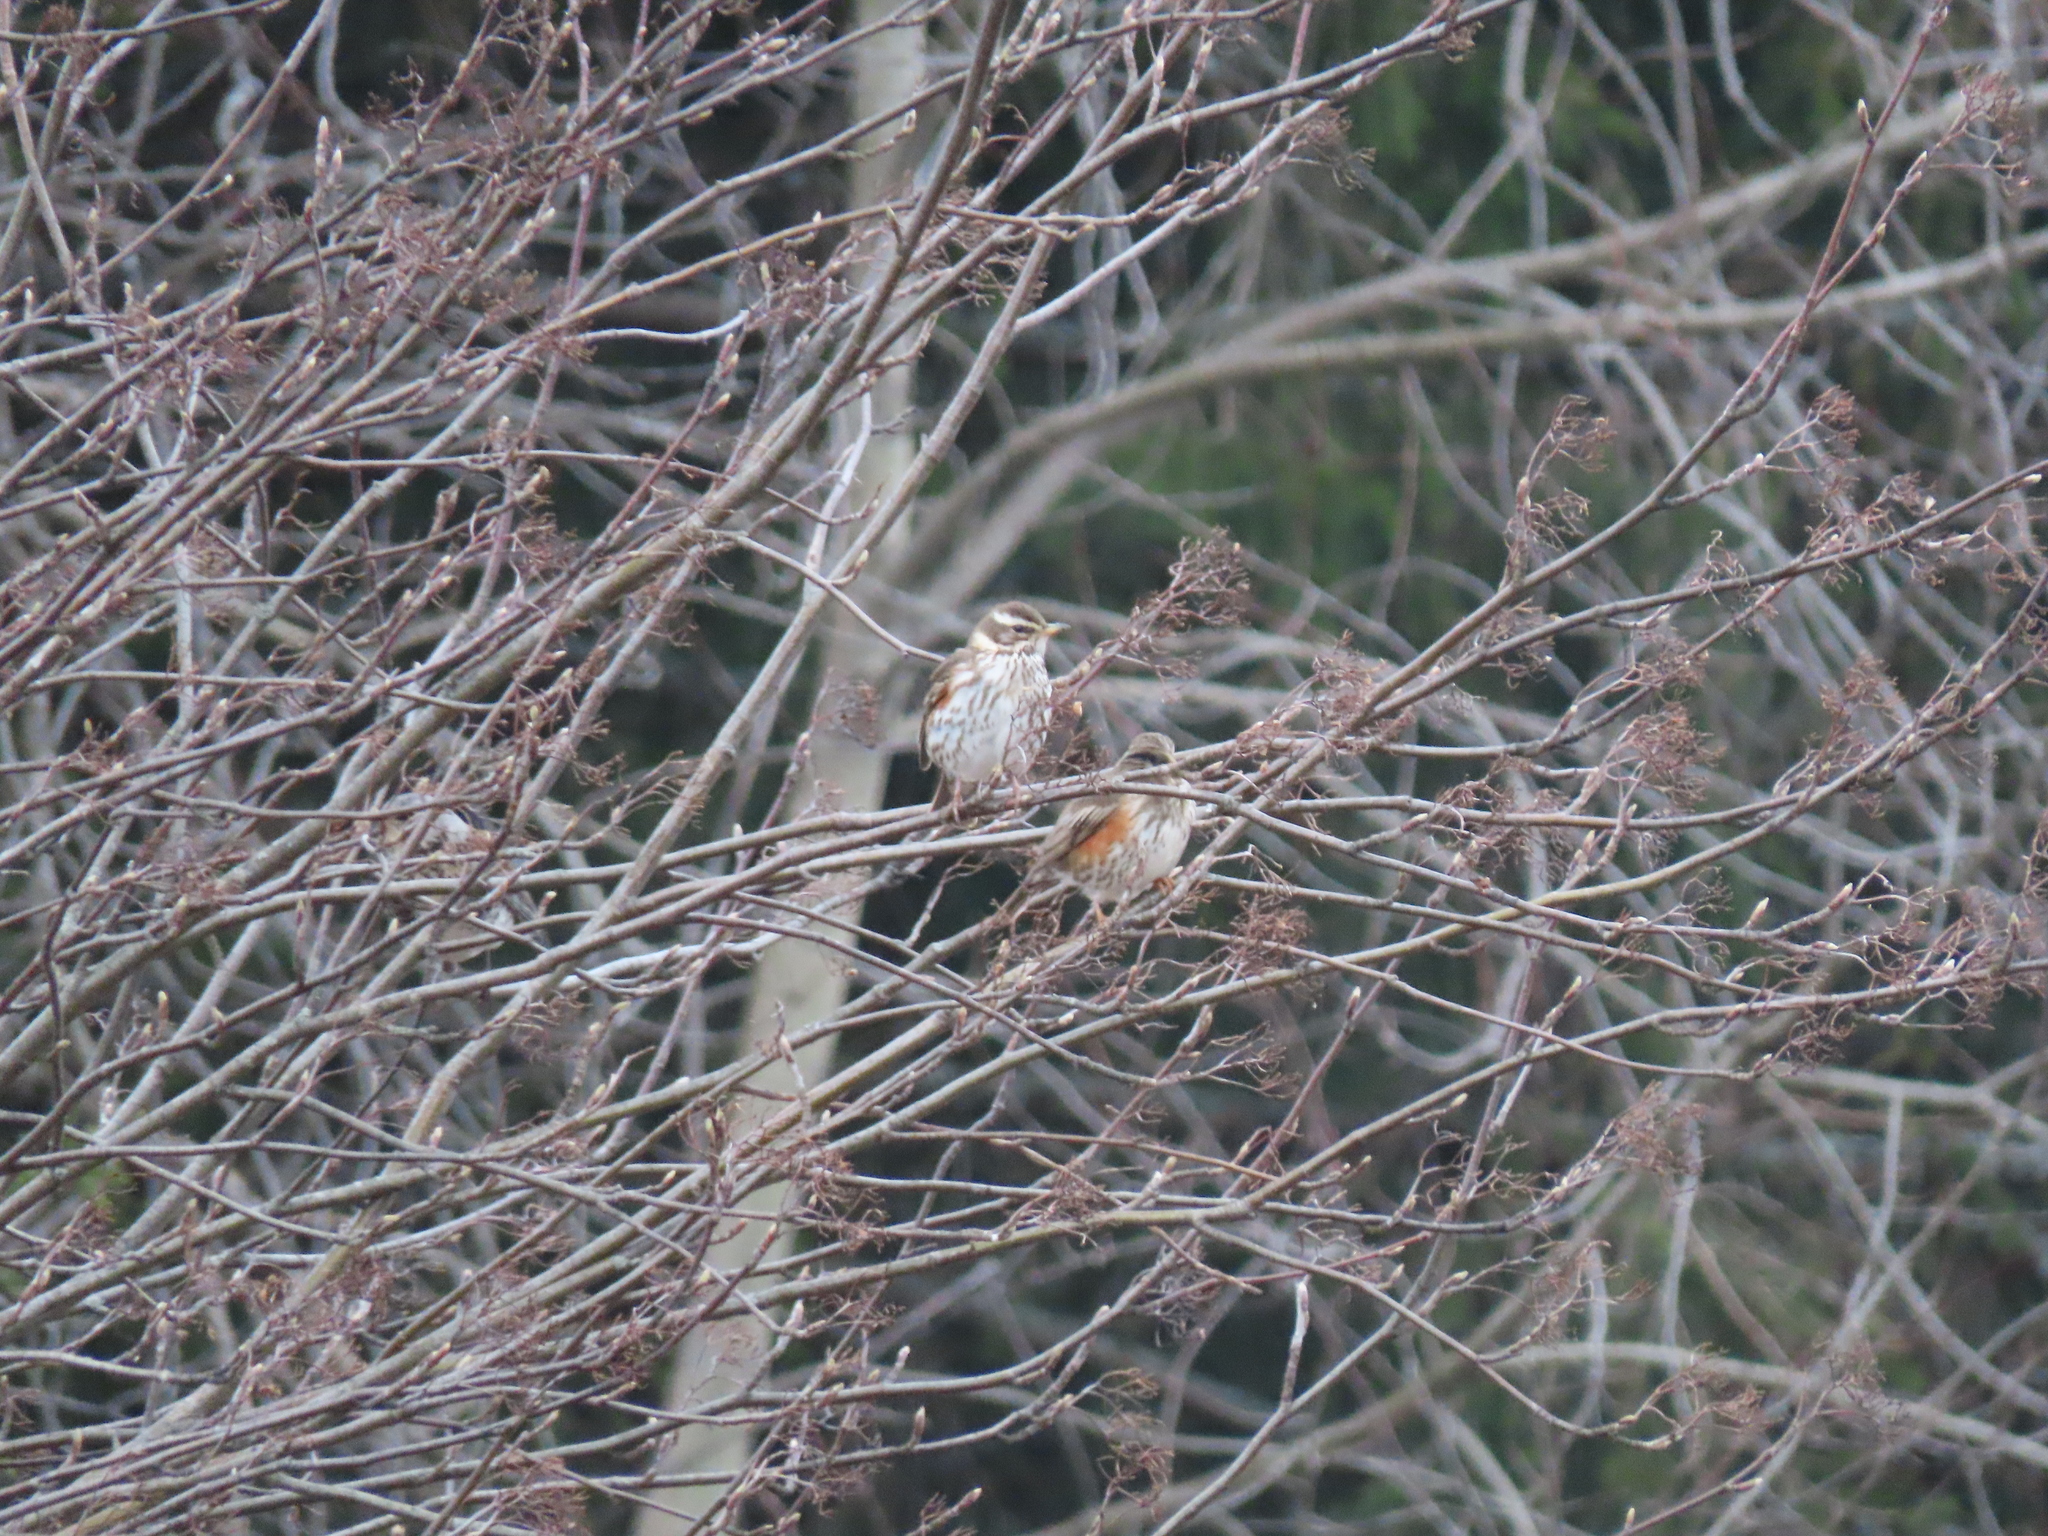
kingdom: Animalia
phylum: Chordata
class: Aves
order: Passeriformes
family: Turdidae
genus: Turdus
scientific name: Turdus iliacus
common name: Redwing
